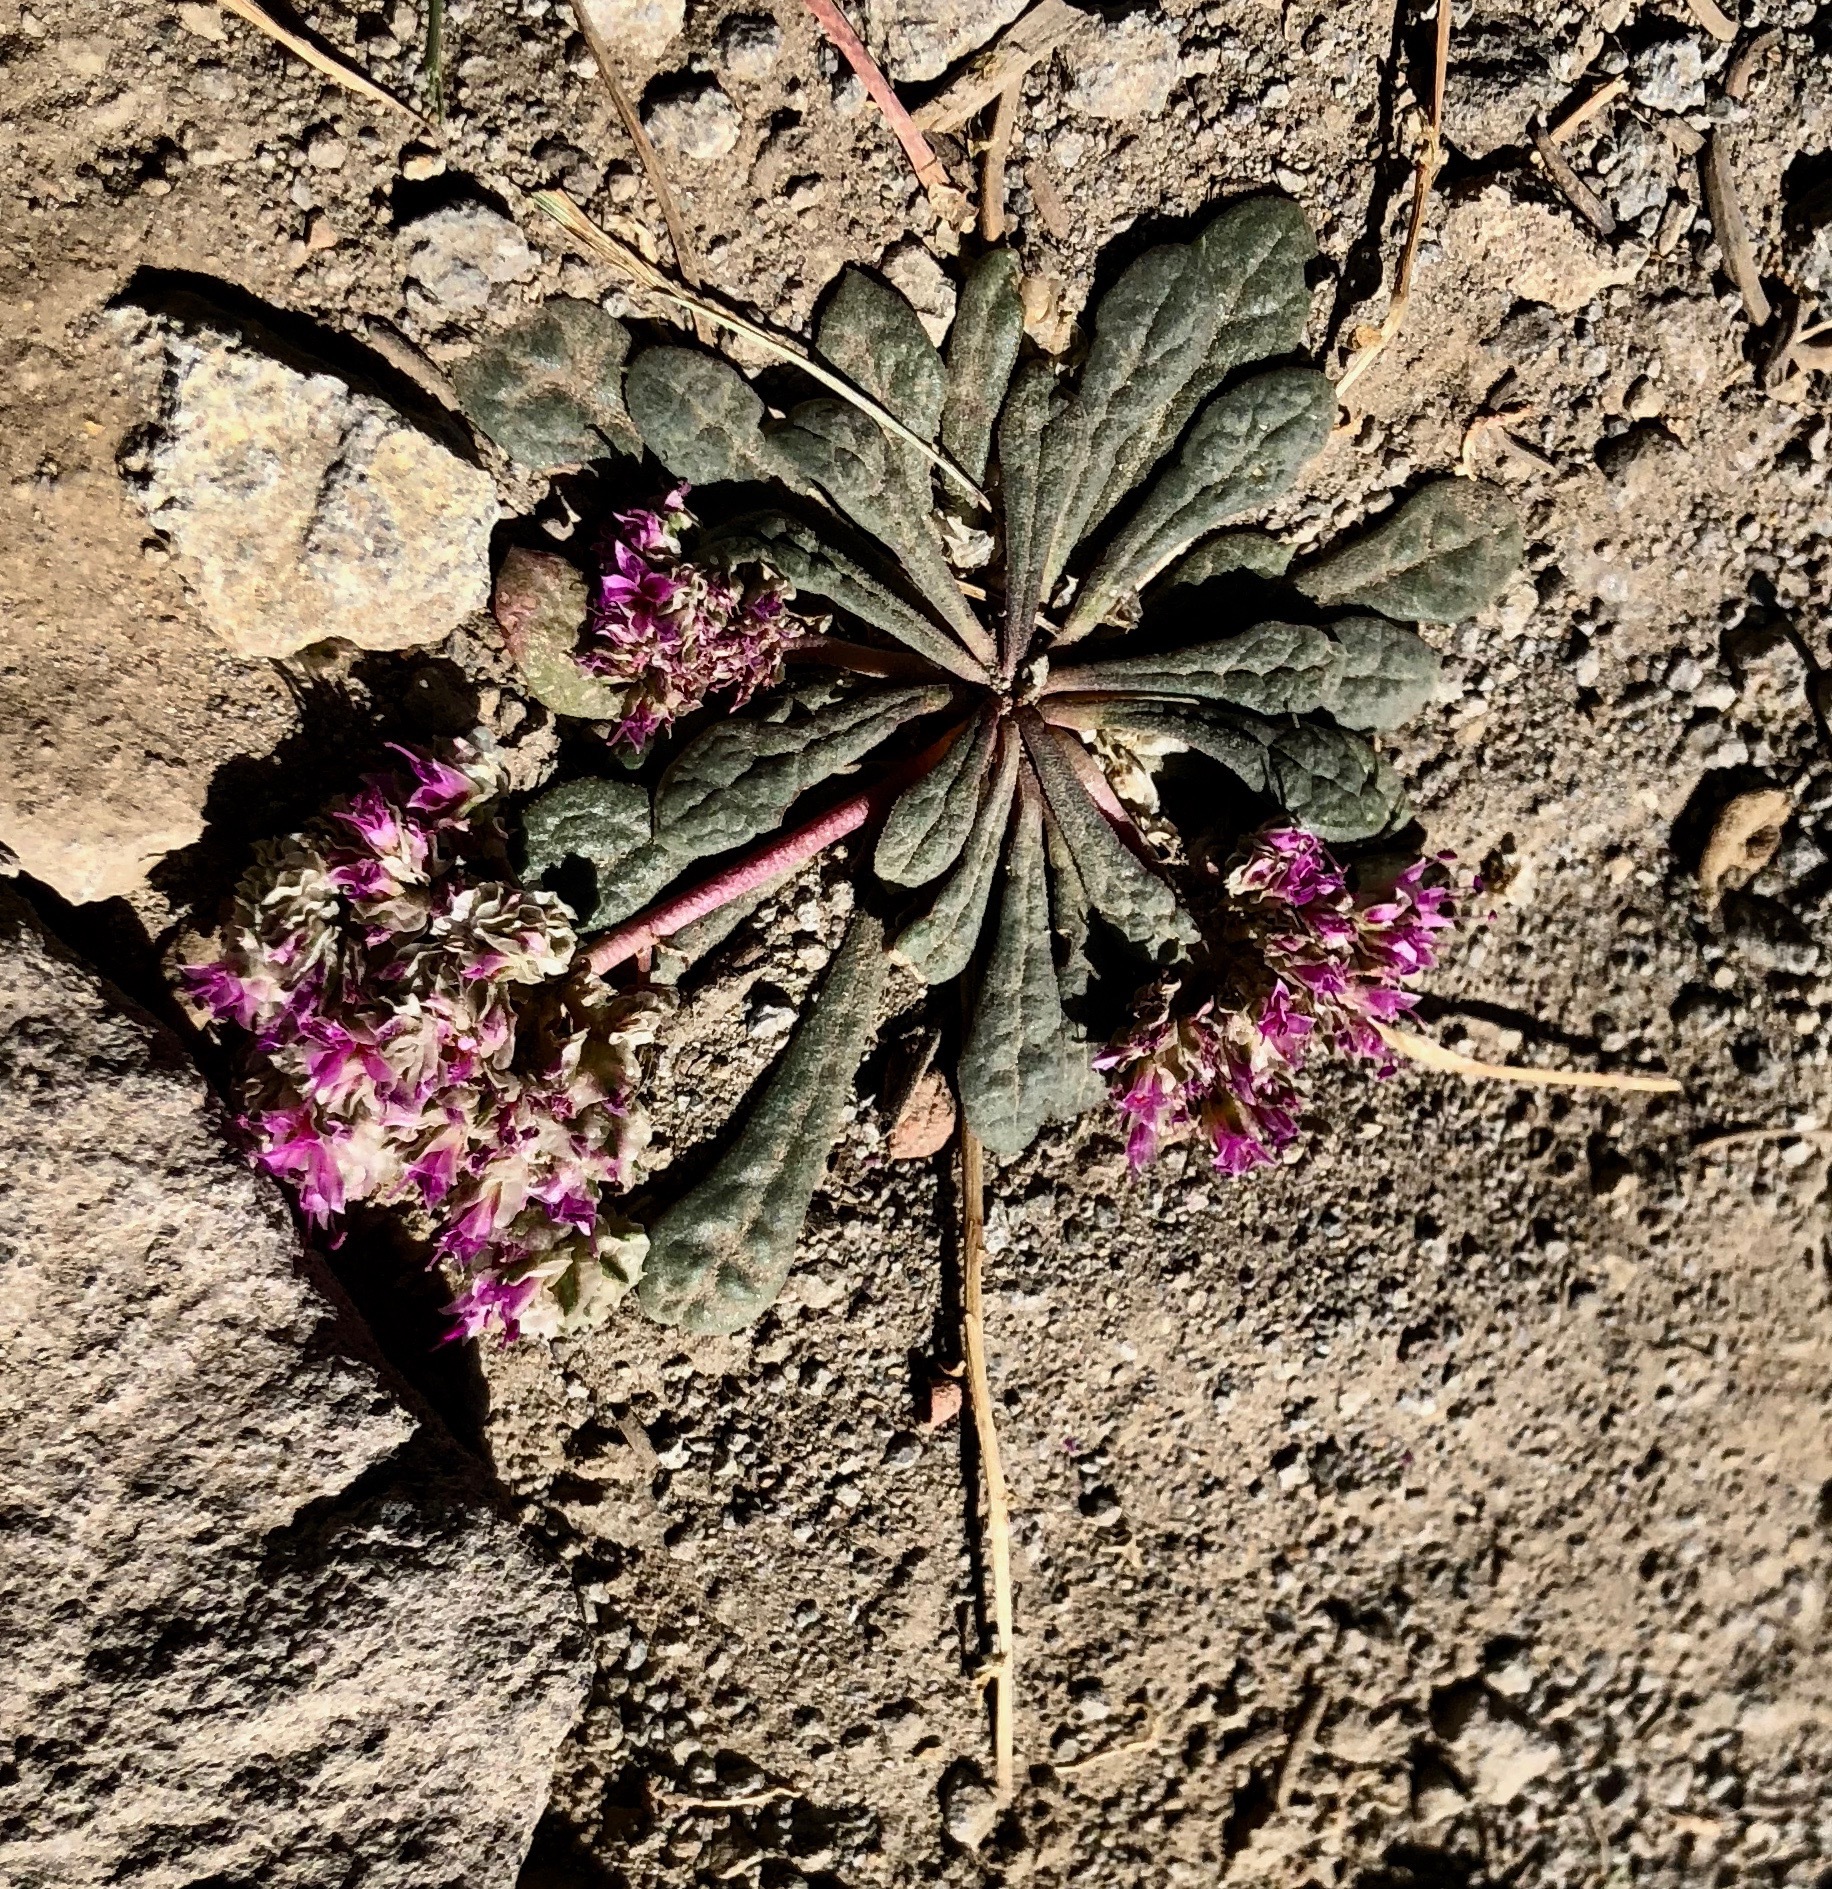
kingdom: Plantae
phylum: Tracheophyta
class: Magnoliopsida
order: Caryophyllales
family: Montiaceae
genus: Calyptridium
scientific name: Calyptridium monospermum
